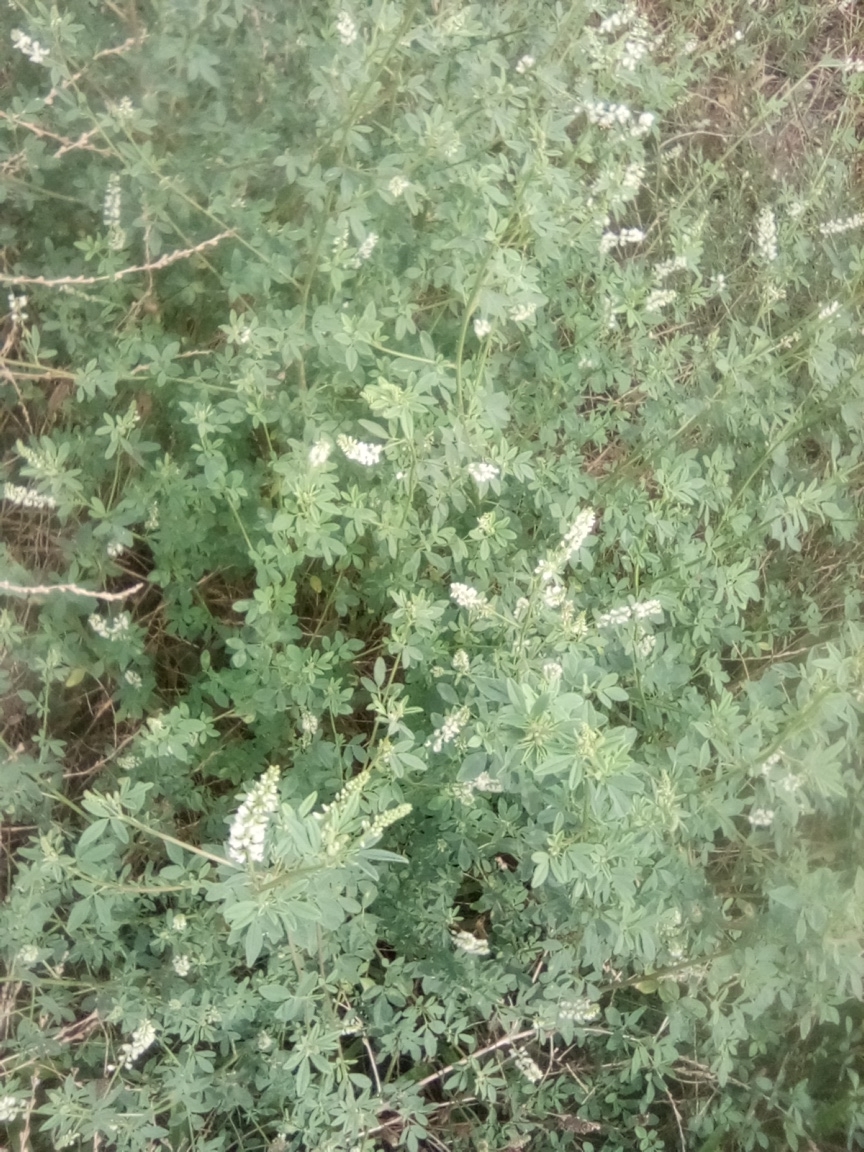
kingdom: Plantae
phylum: Tracheophyta
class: Magnoliopsida
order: Fabales
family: Fabaceae
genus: Melilotus
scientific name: Melilotus tauricus
